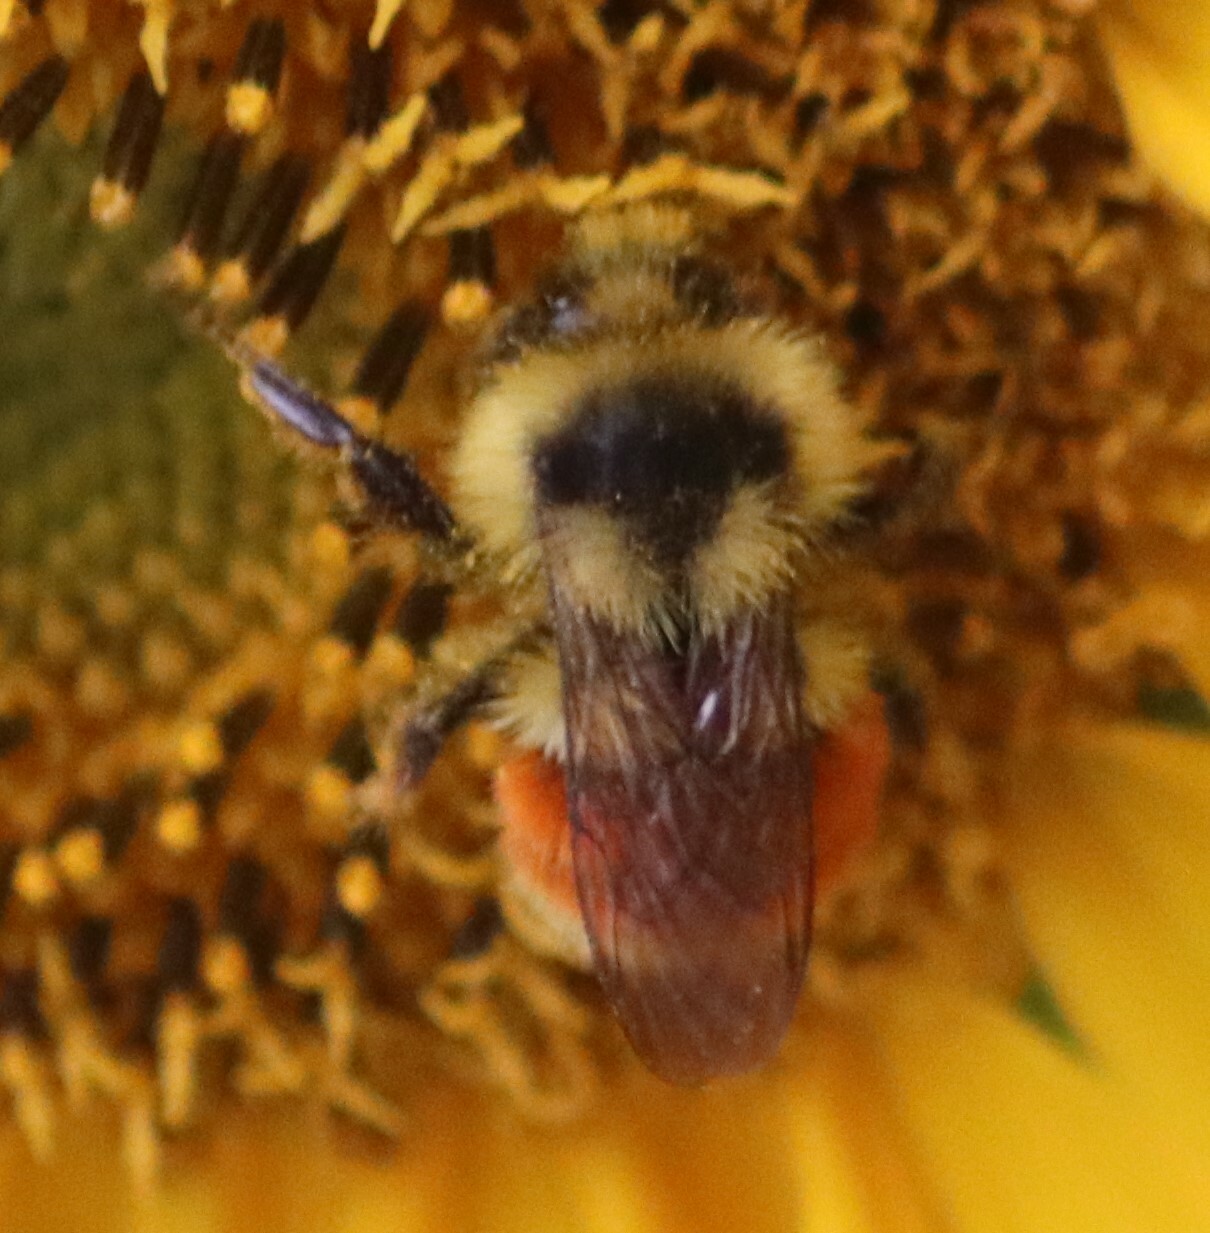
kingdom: Animalia
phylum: Arthropoda
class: Insecta
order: Hymenoptera
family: Apidae
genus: Bombus
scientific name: Bombus ternarius
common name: Tri-colored bumble bee
